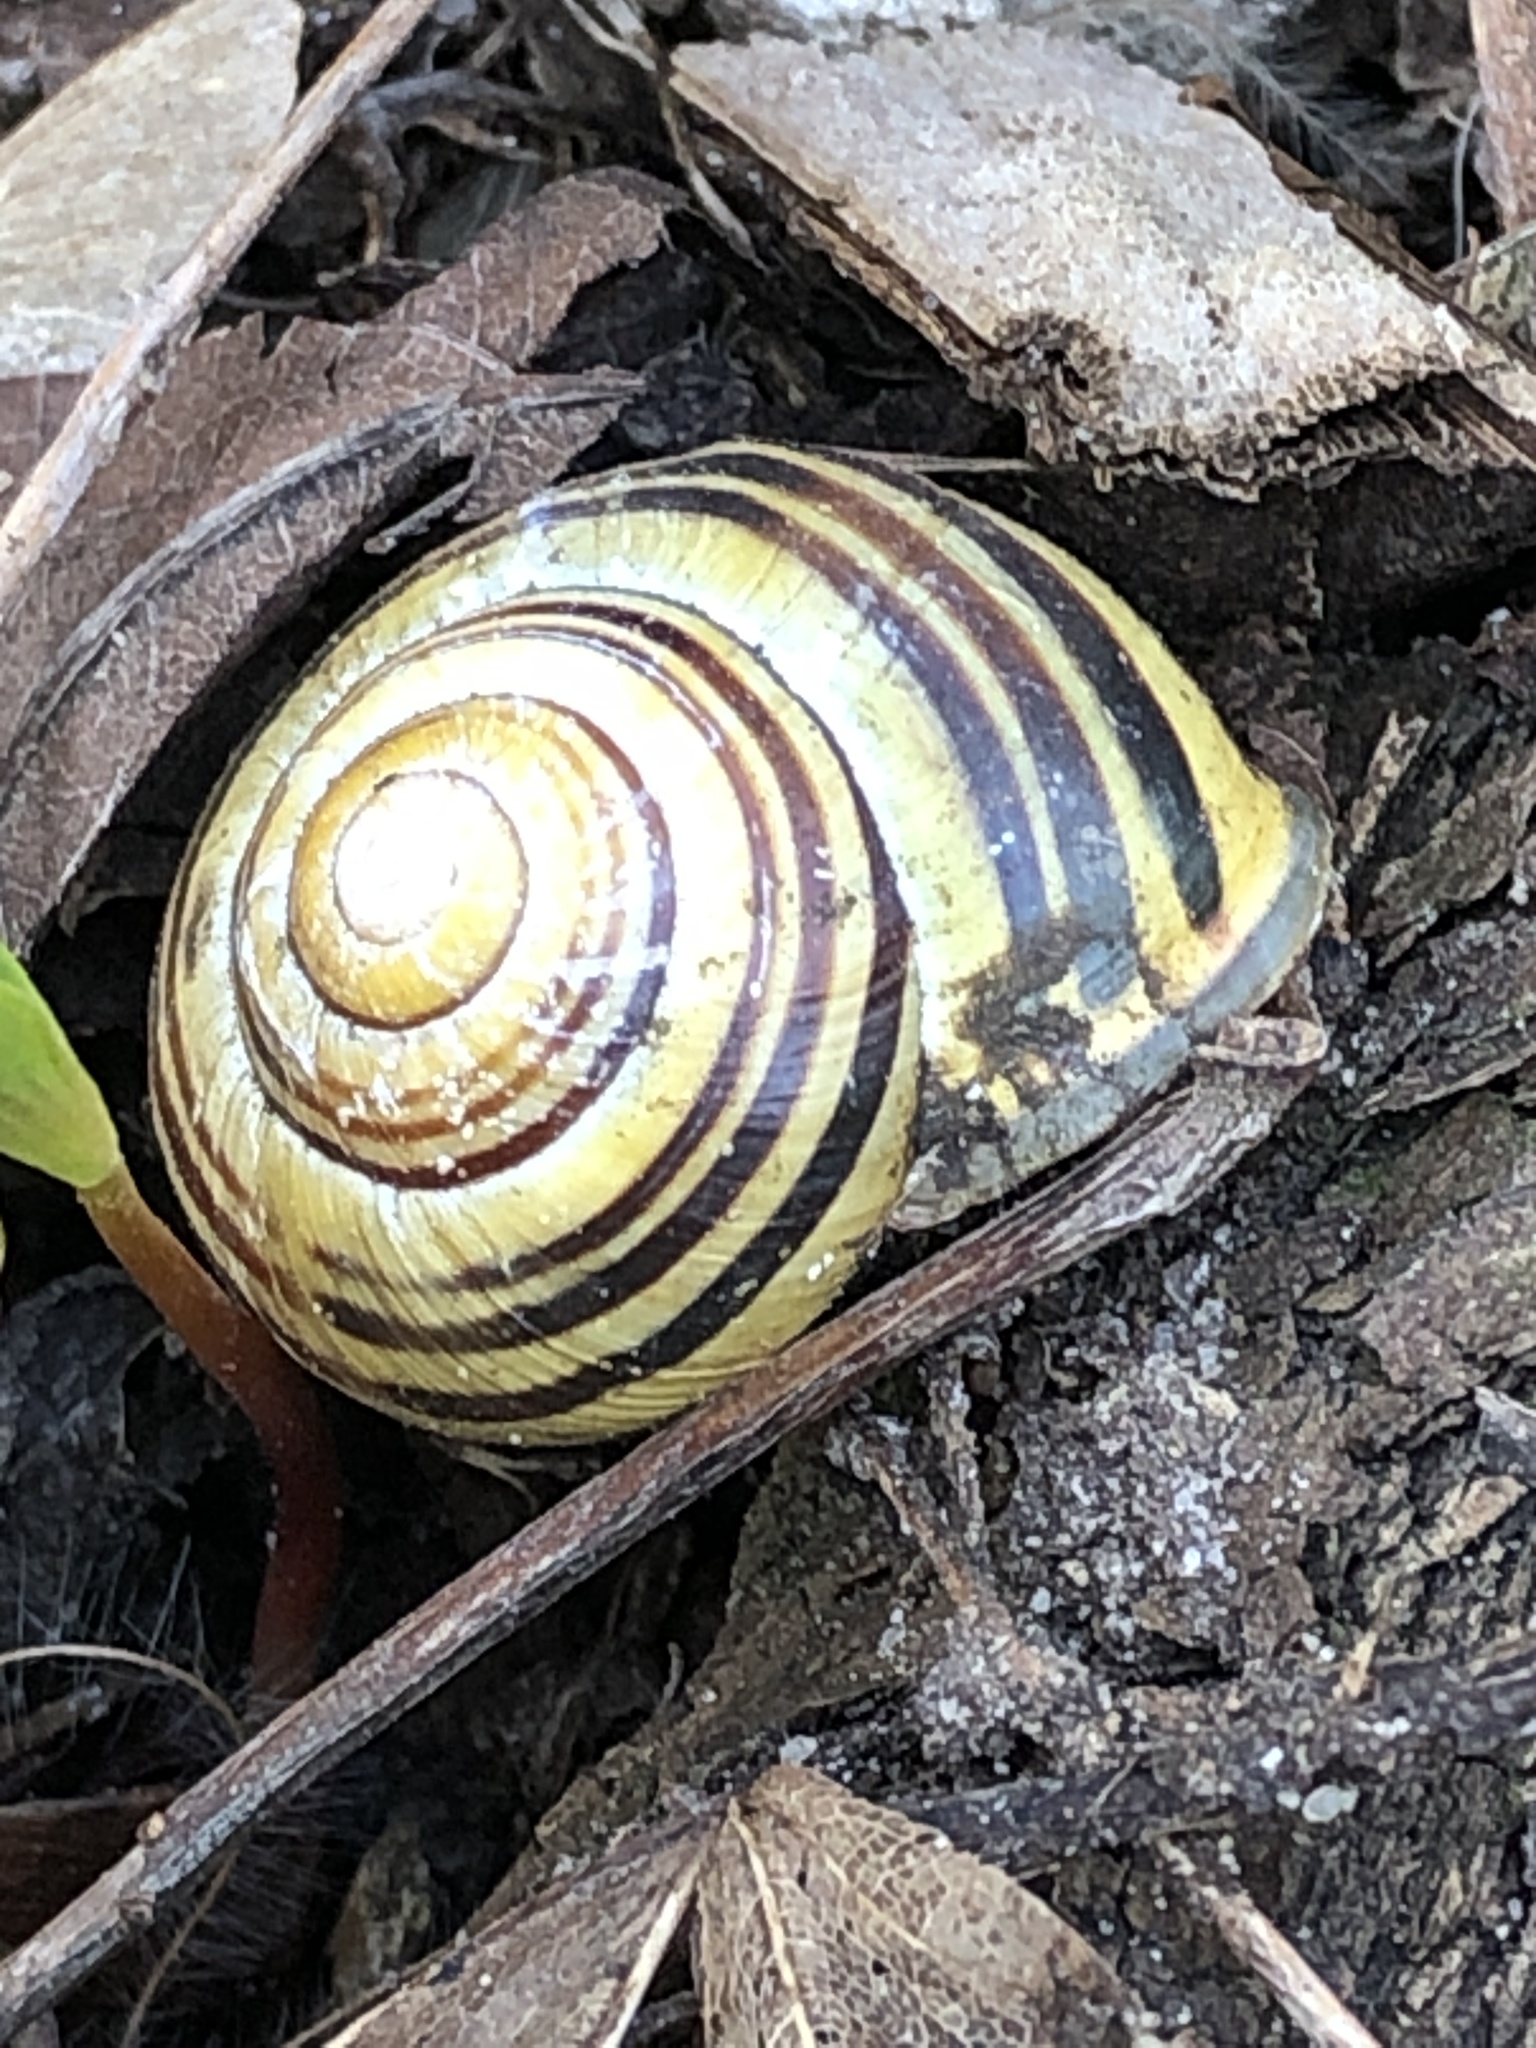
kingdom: Animalia
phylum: Mollusca
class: Gastropoda
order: Stylommatophora
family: Helicidae
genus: Cepaea
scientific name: Cepaea nemoralis
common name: Grovesnail
